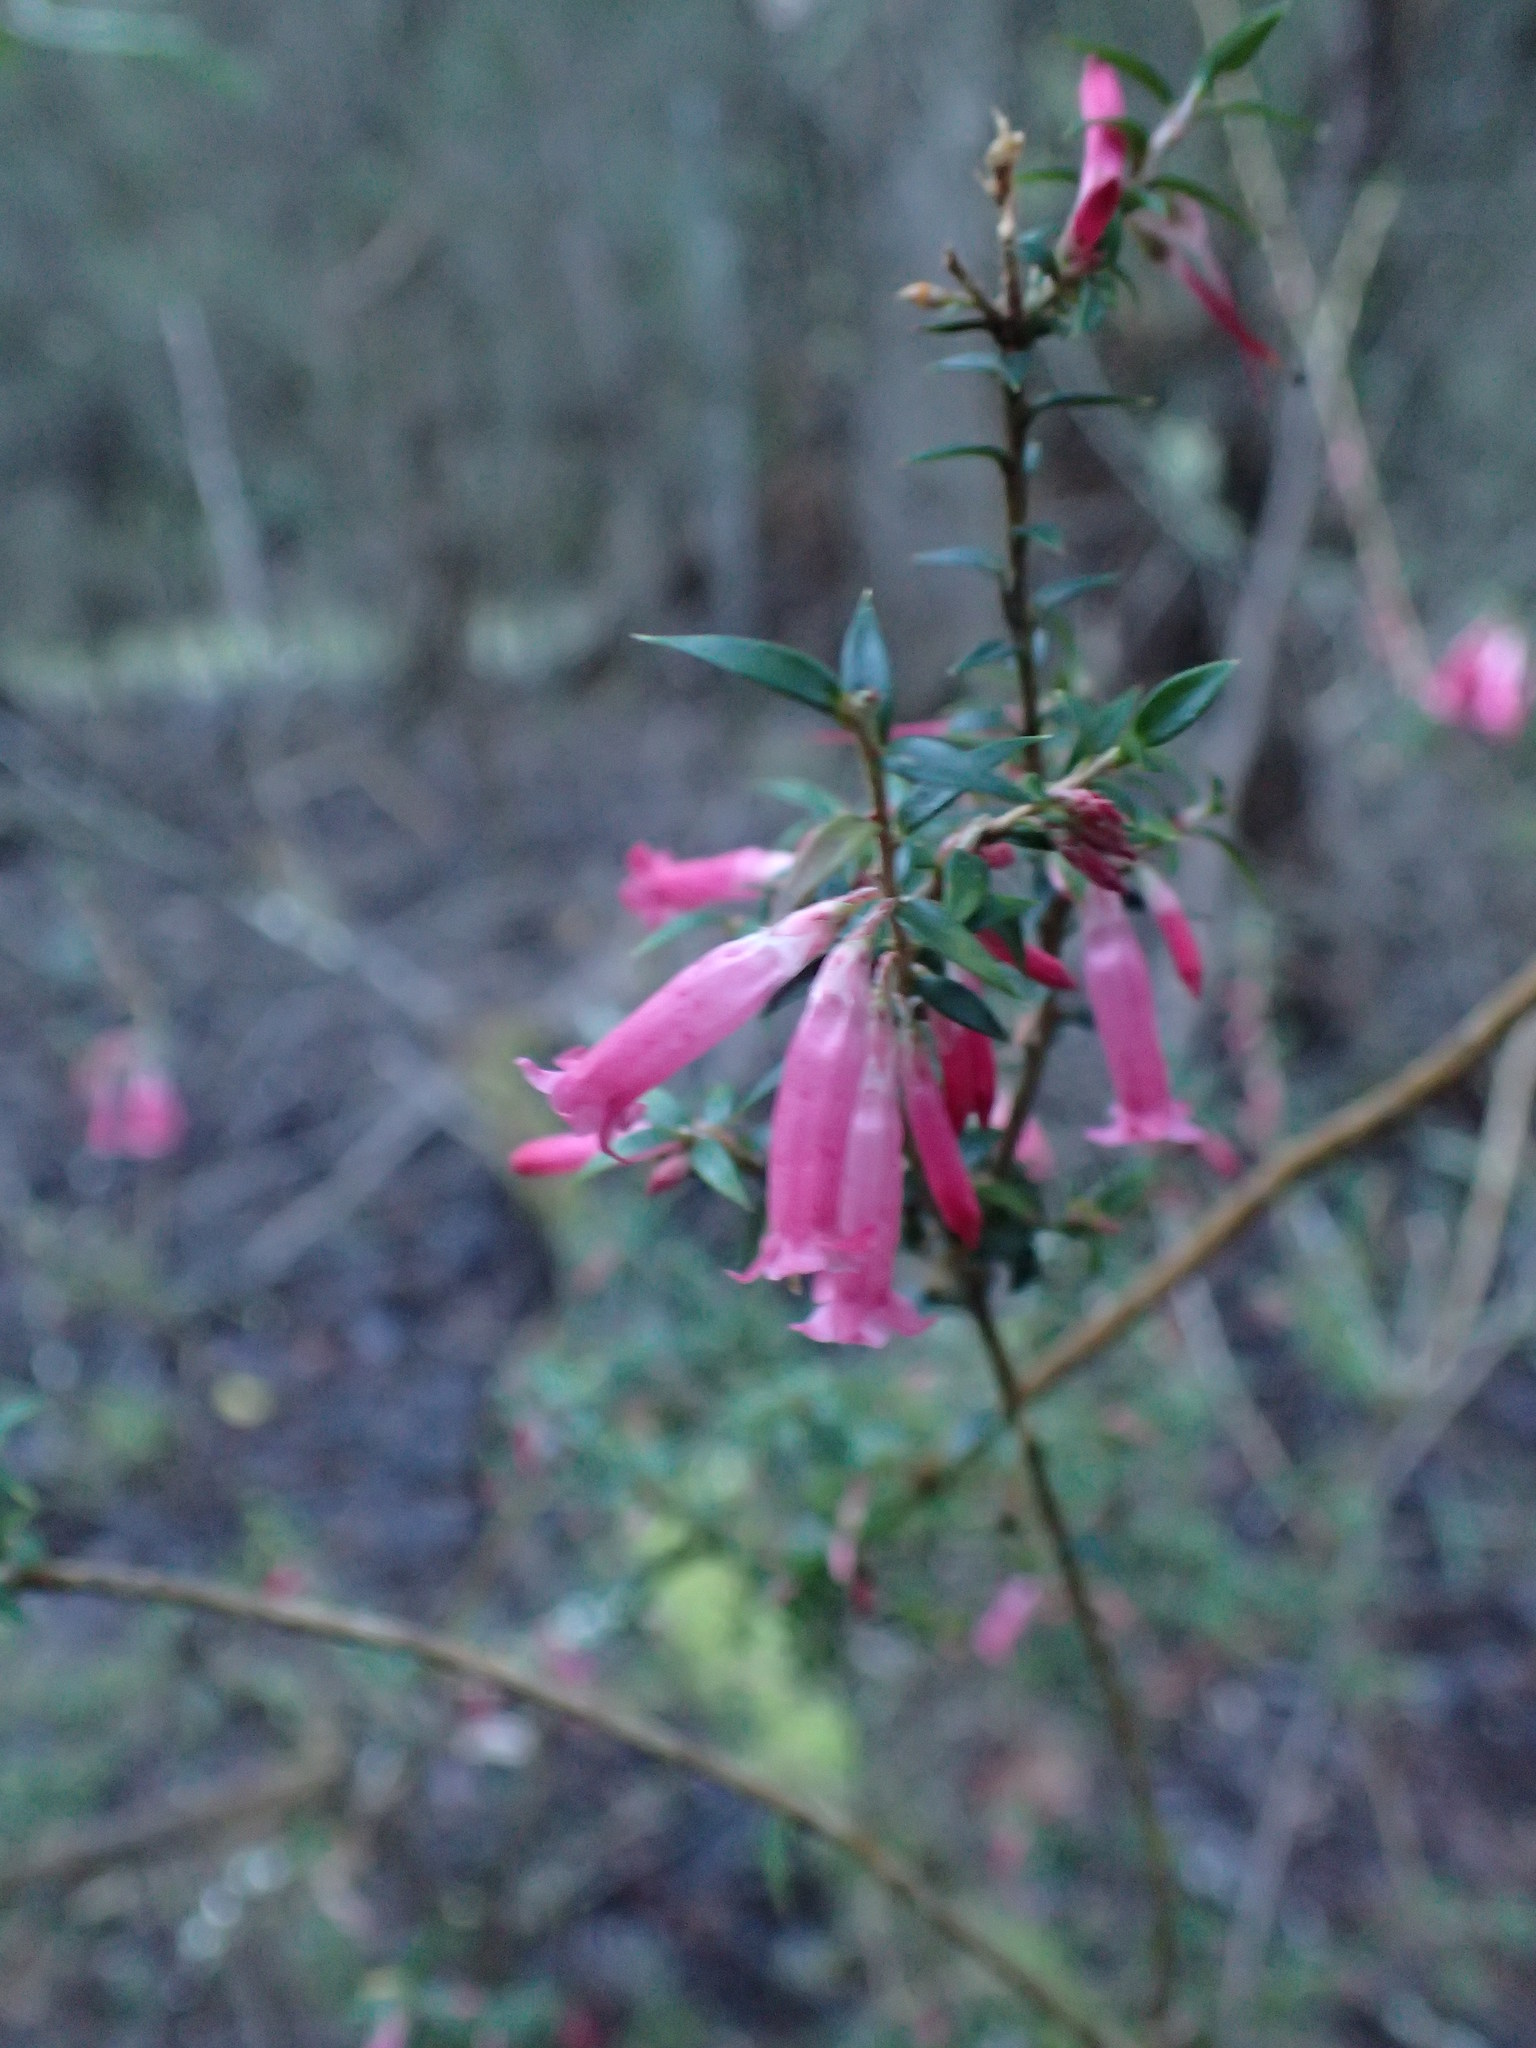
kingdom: Plantae
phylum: Tracheophyta
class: Magnoliopsida
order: Ericales
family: Ericaceae
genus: Epacris
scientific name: Epacris impressa
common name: Common-heath
